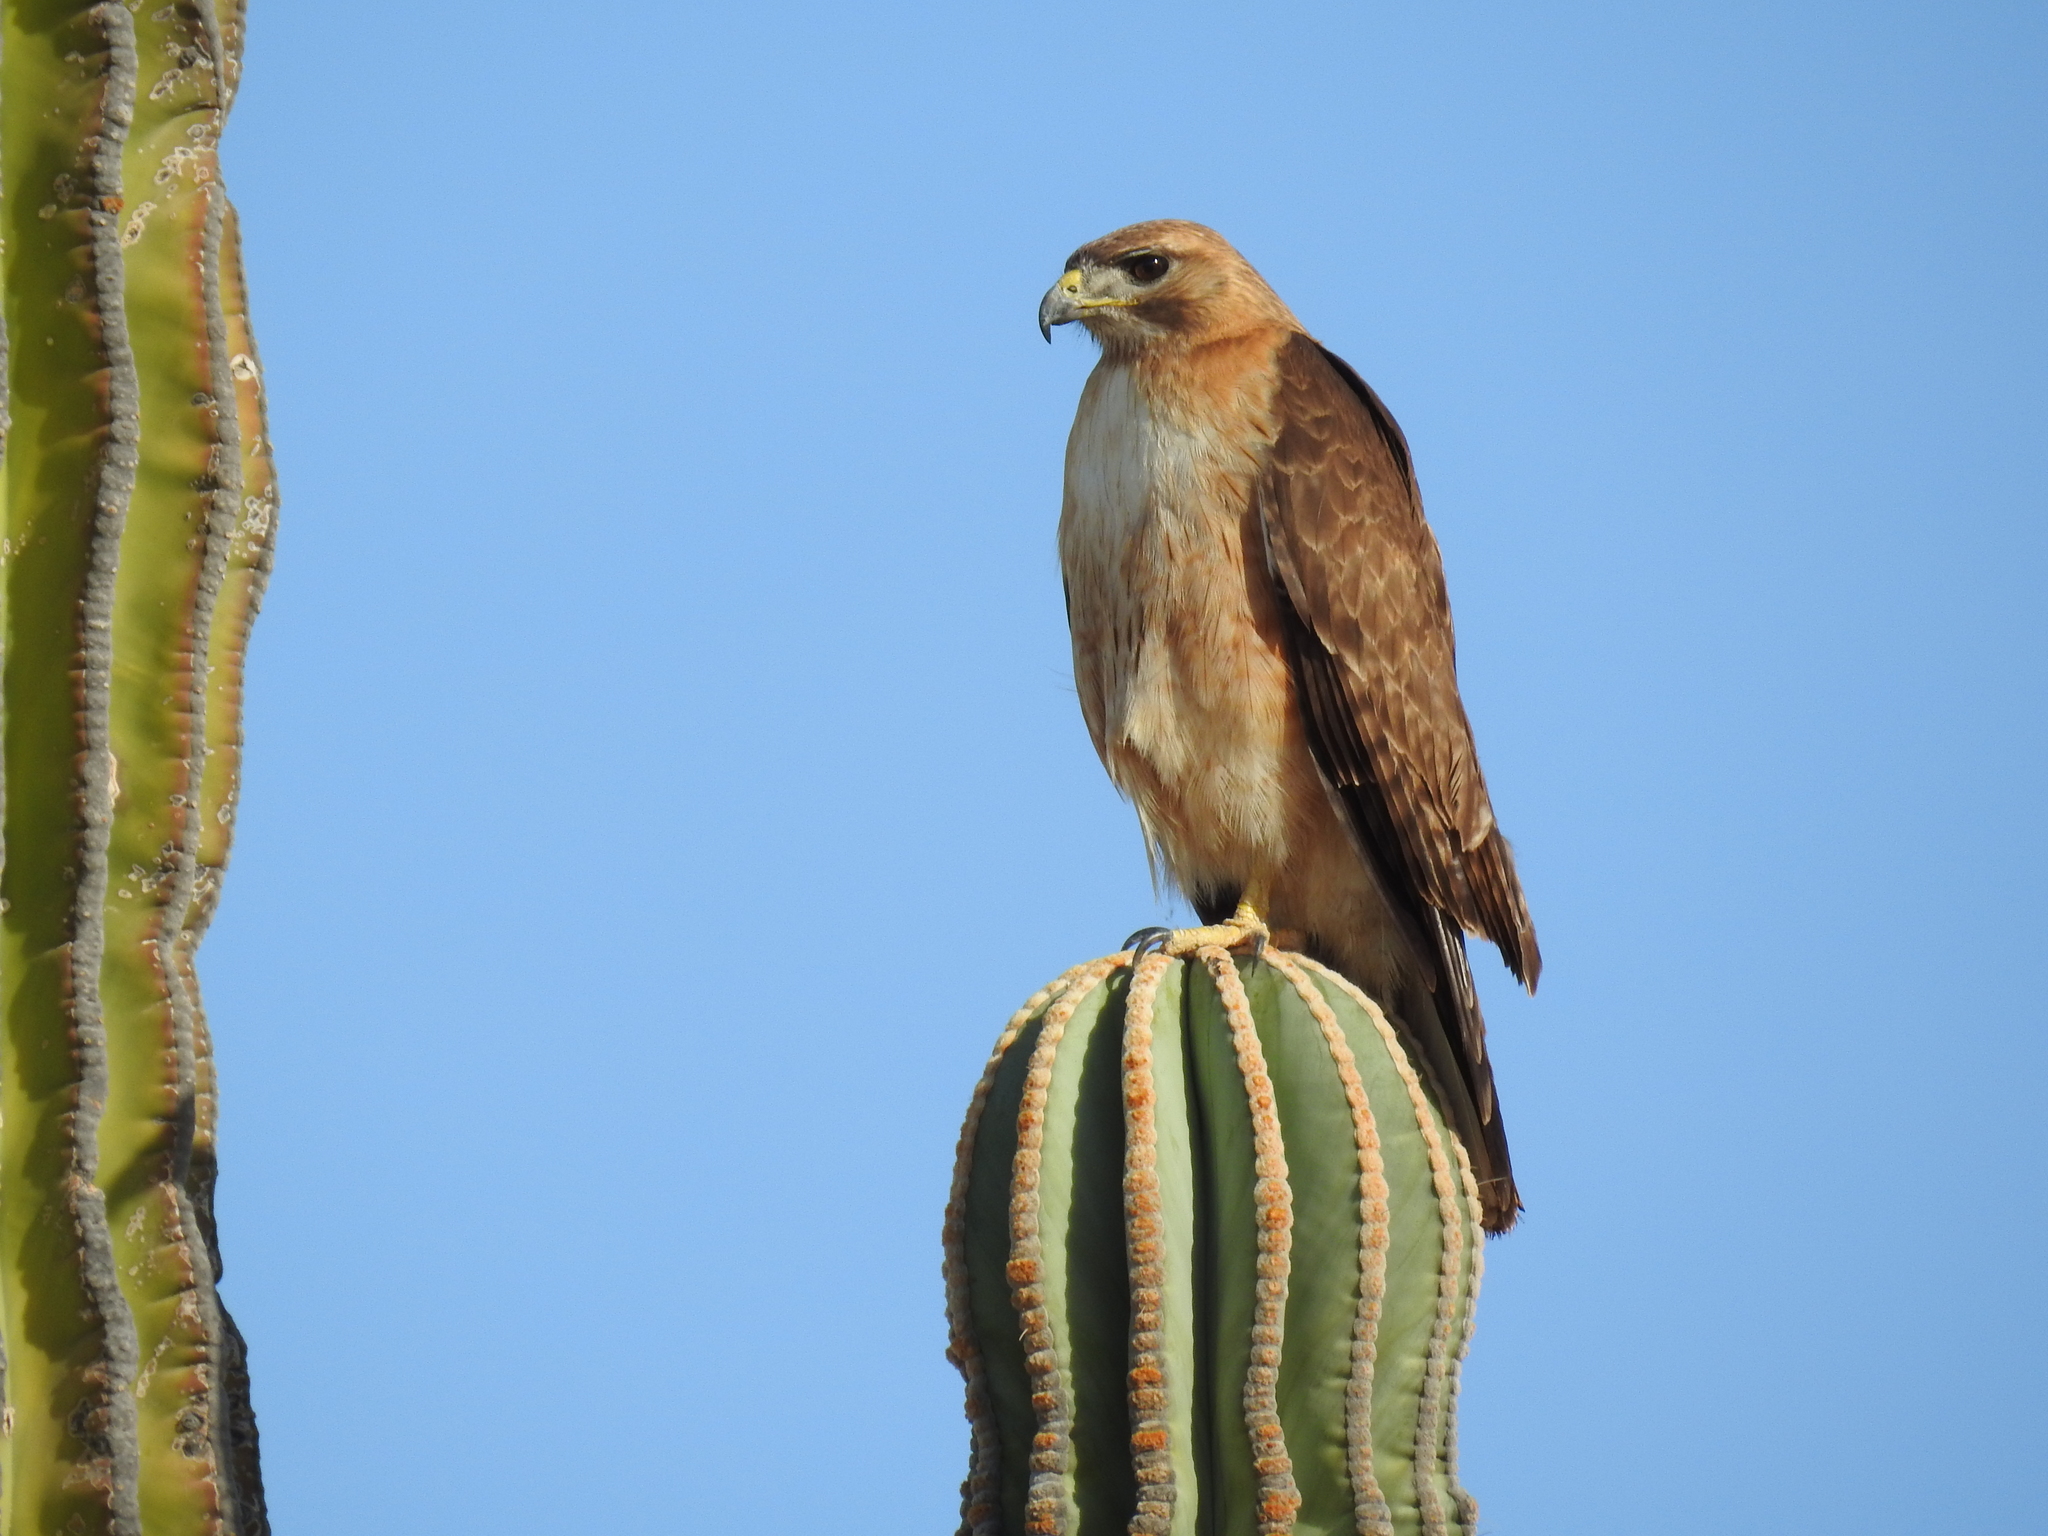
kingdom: Animalia
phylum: Chordata
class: Aves
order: Accipitriformes
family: Accipitridae
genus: Buteo
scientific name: Buteo jamaicensis
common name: Red-tailed hawk
